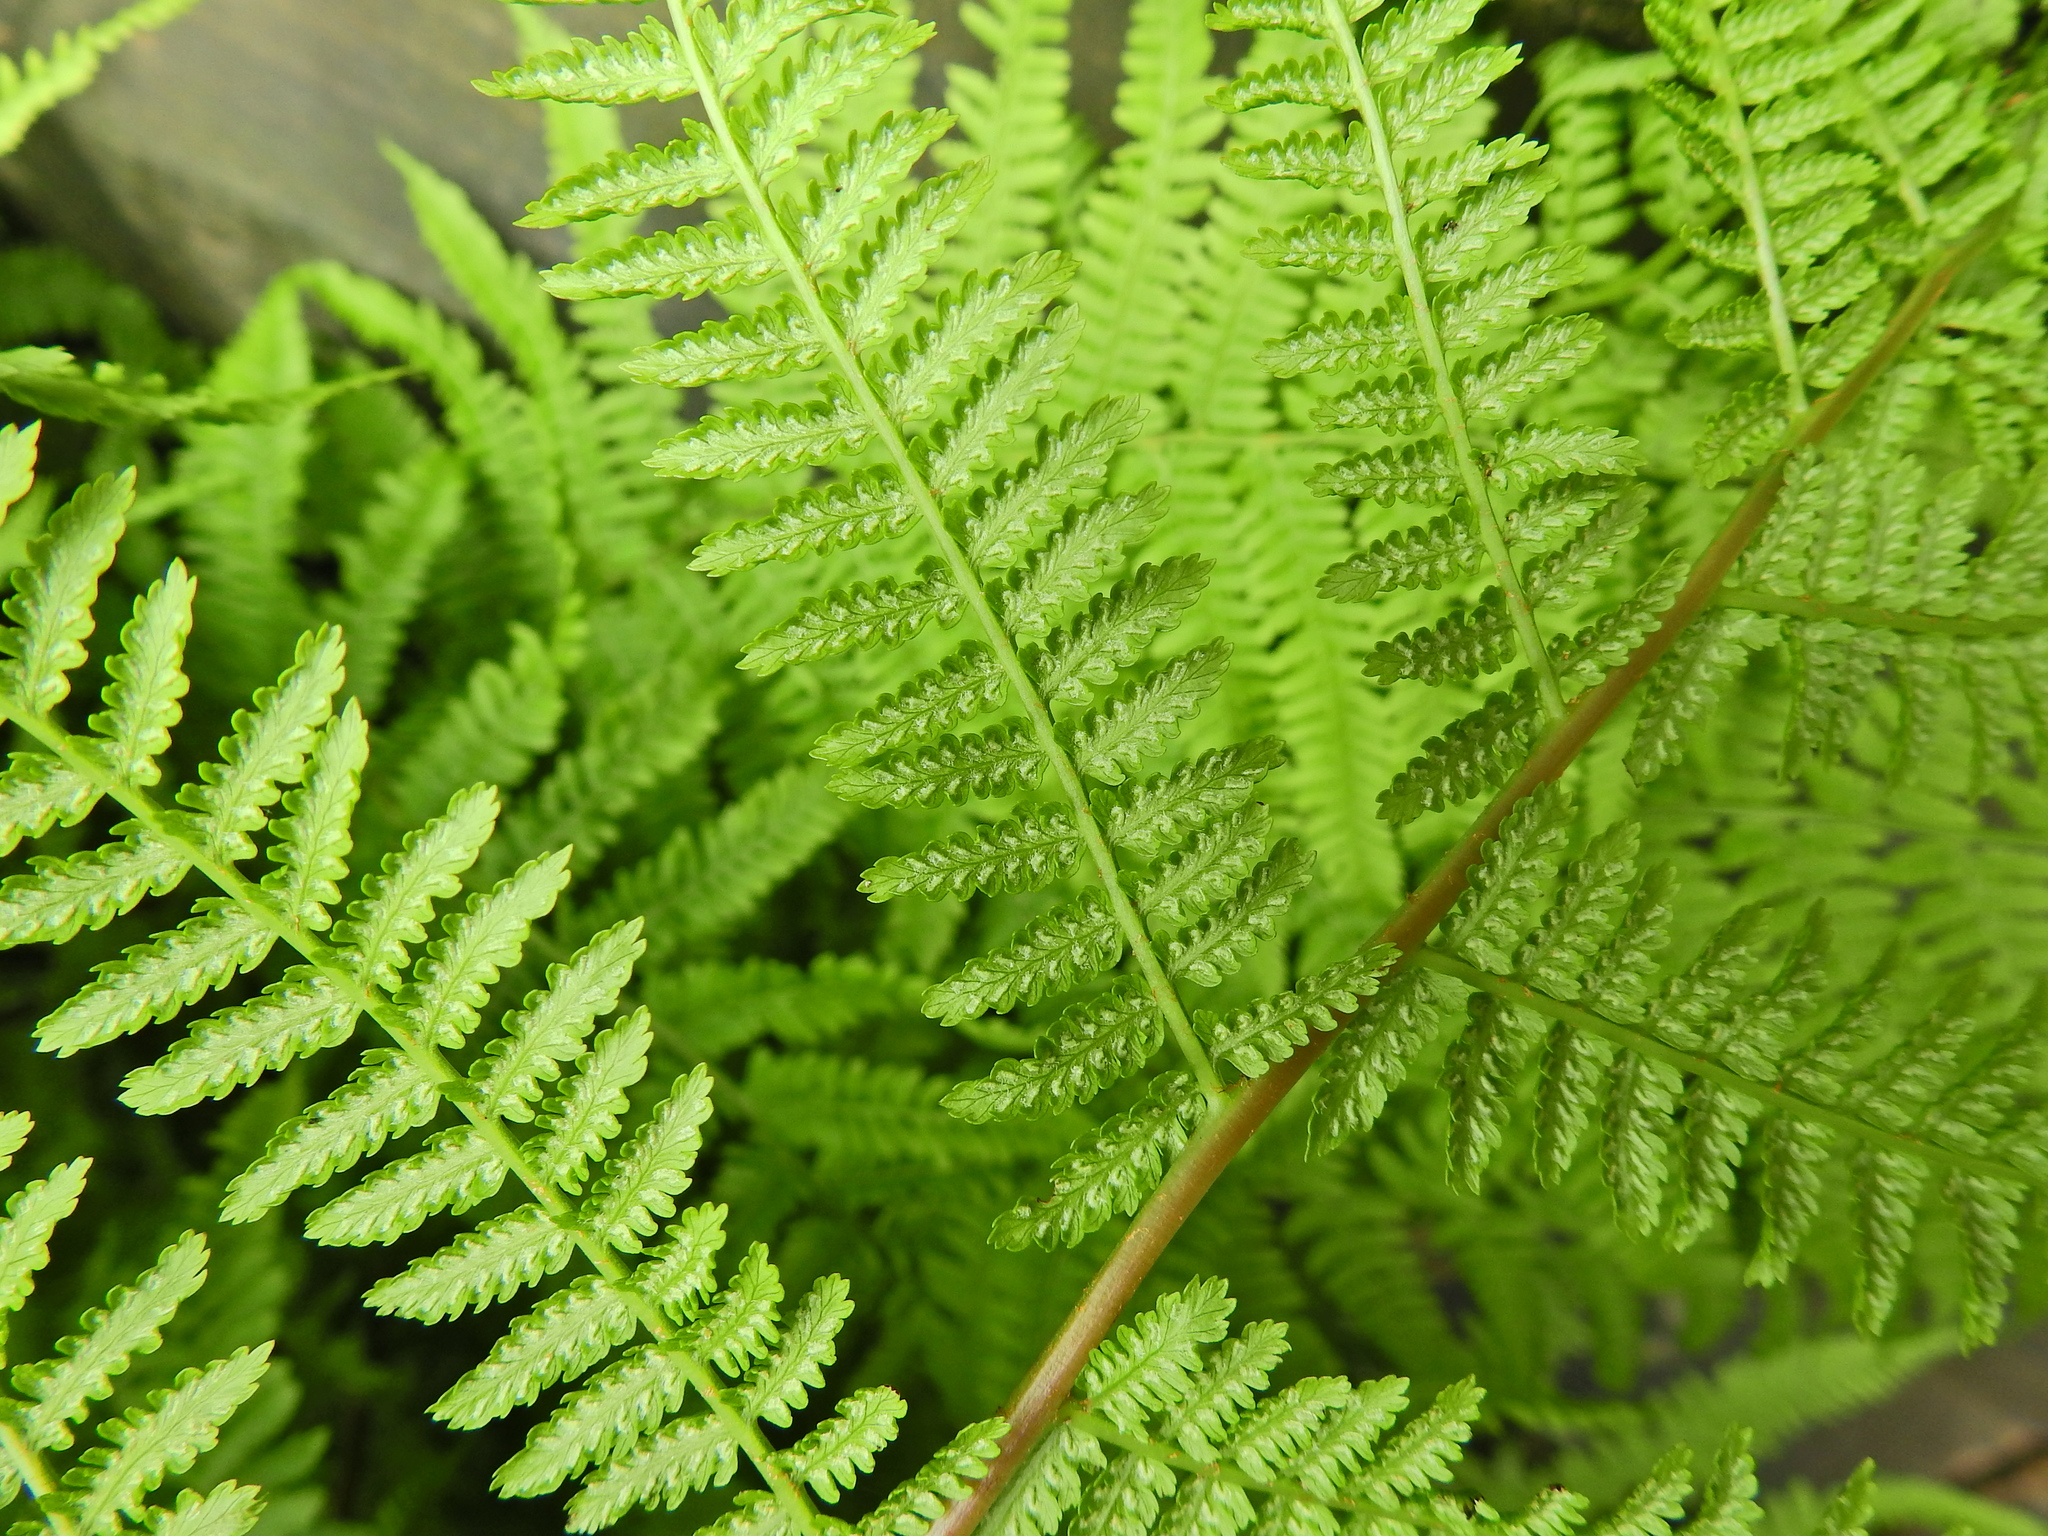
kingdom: Plantae
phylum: Tracheophyta
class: Polypodiopsida
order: Polypodiales
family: Athyriaceae
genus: Athyrium
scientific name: Athyrium filix-femina
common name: Lady fern
